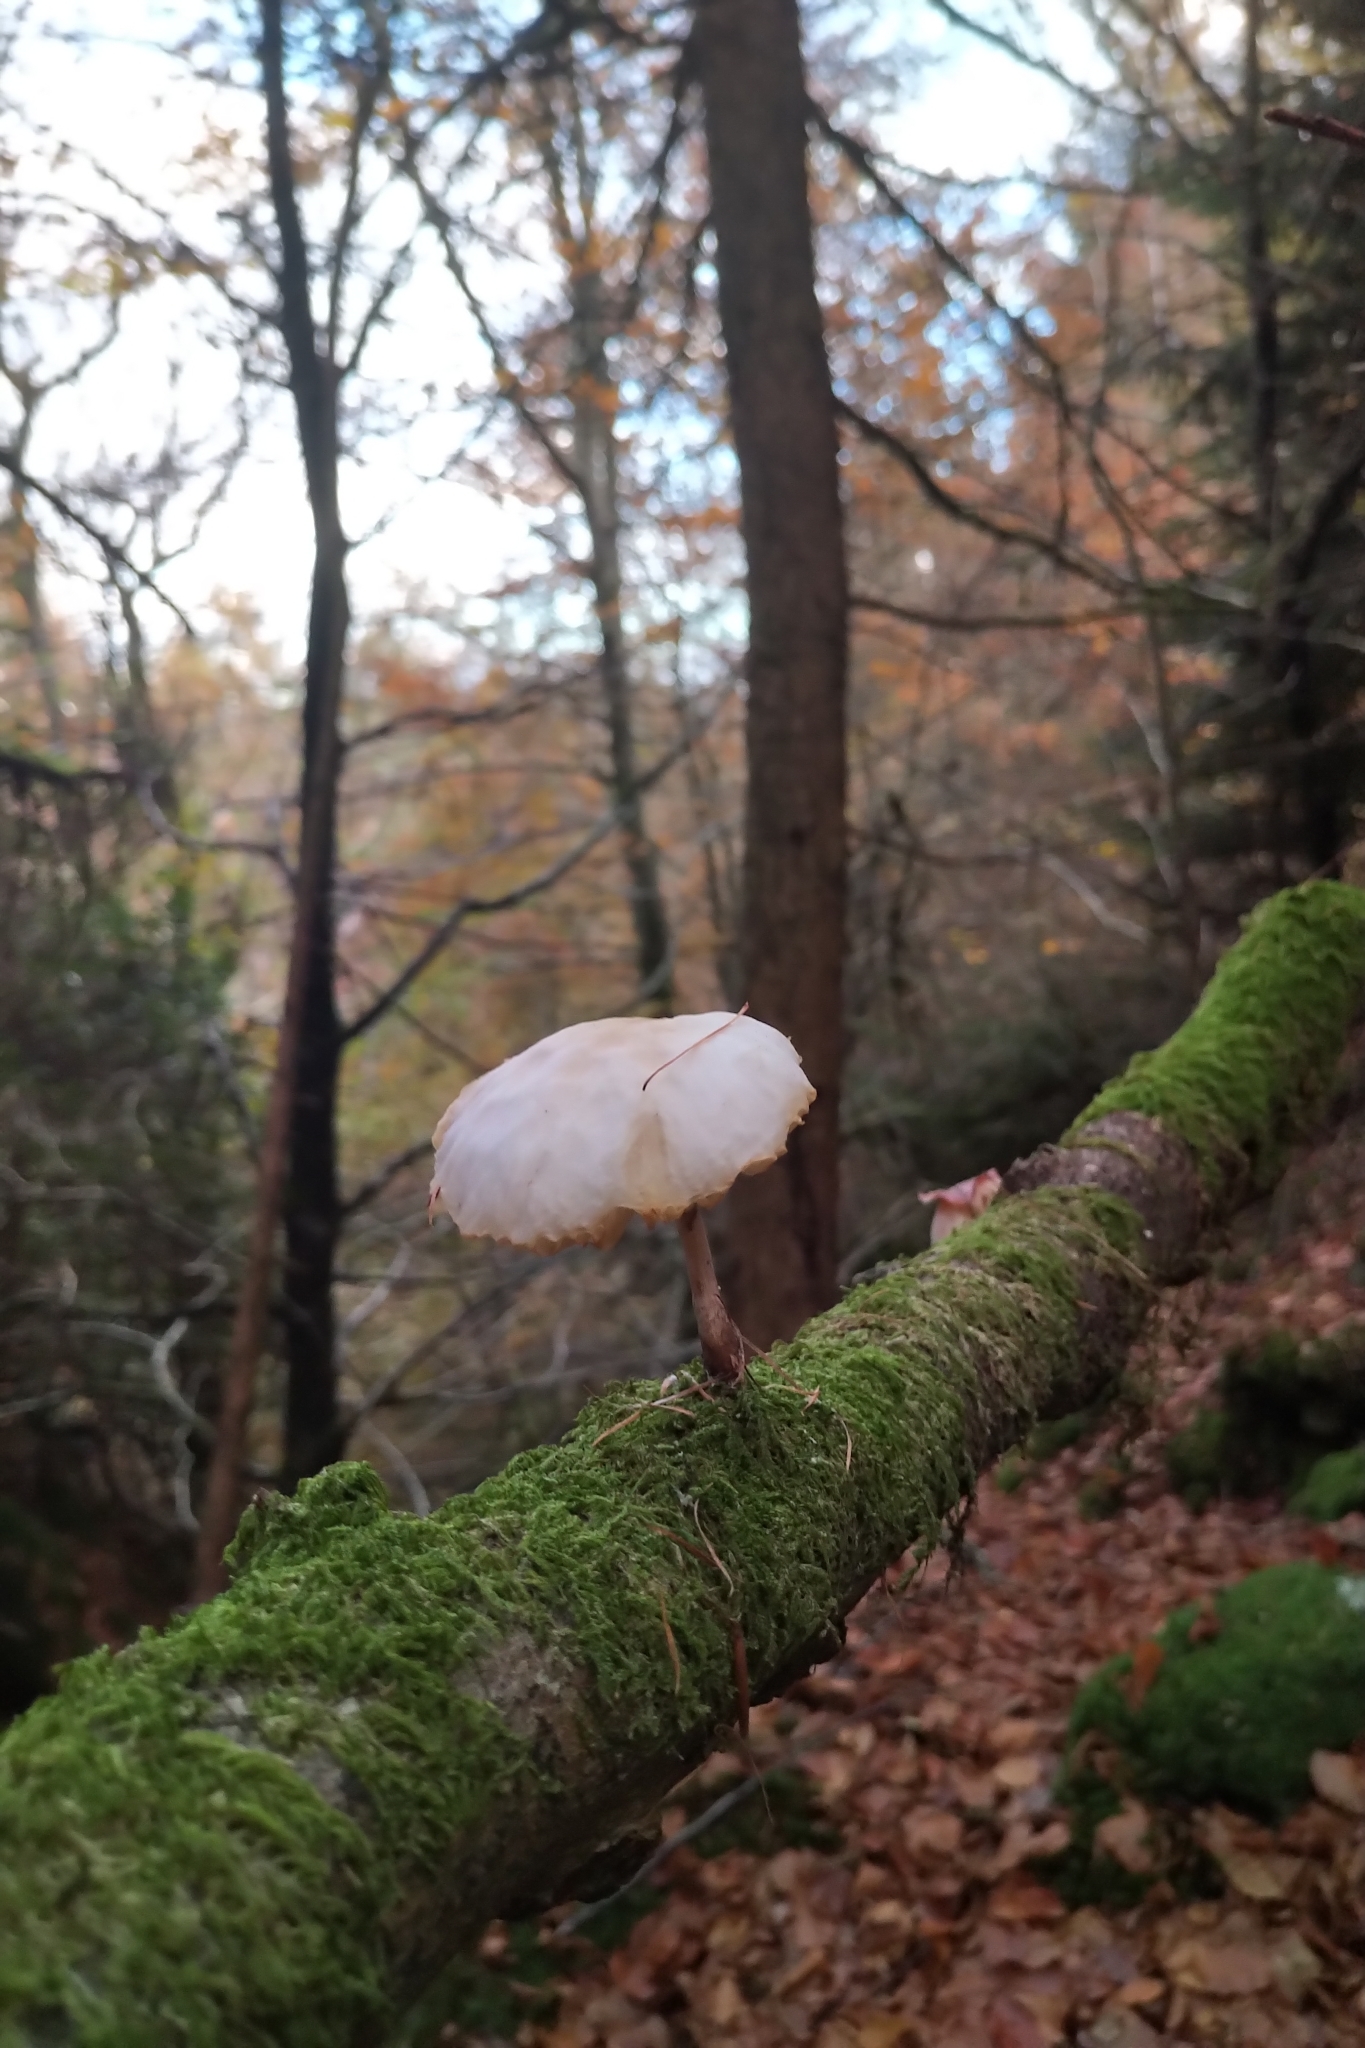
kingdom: Fungi
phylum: Basidiomycota
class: Agaricomycetes
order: Agaricales
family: Physalacriaceae
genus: Mucidula
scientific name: Mucidula mucida
